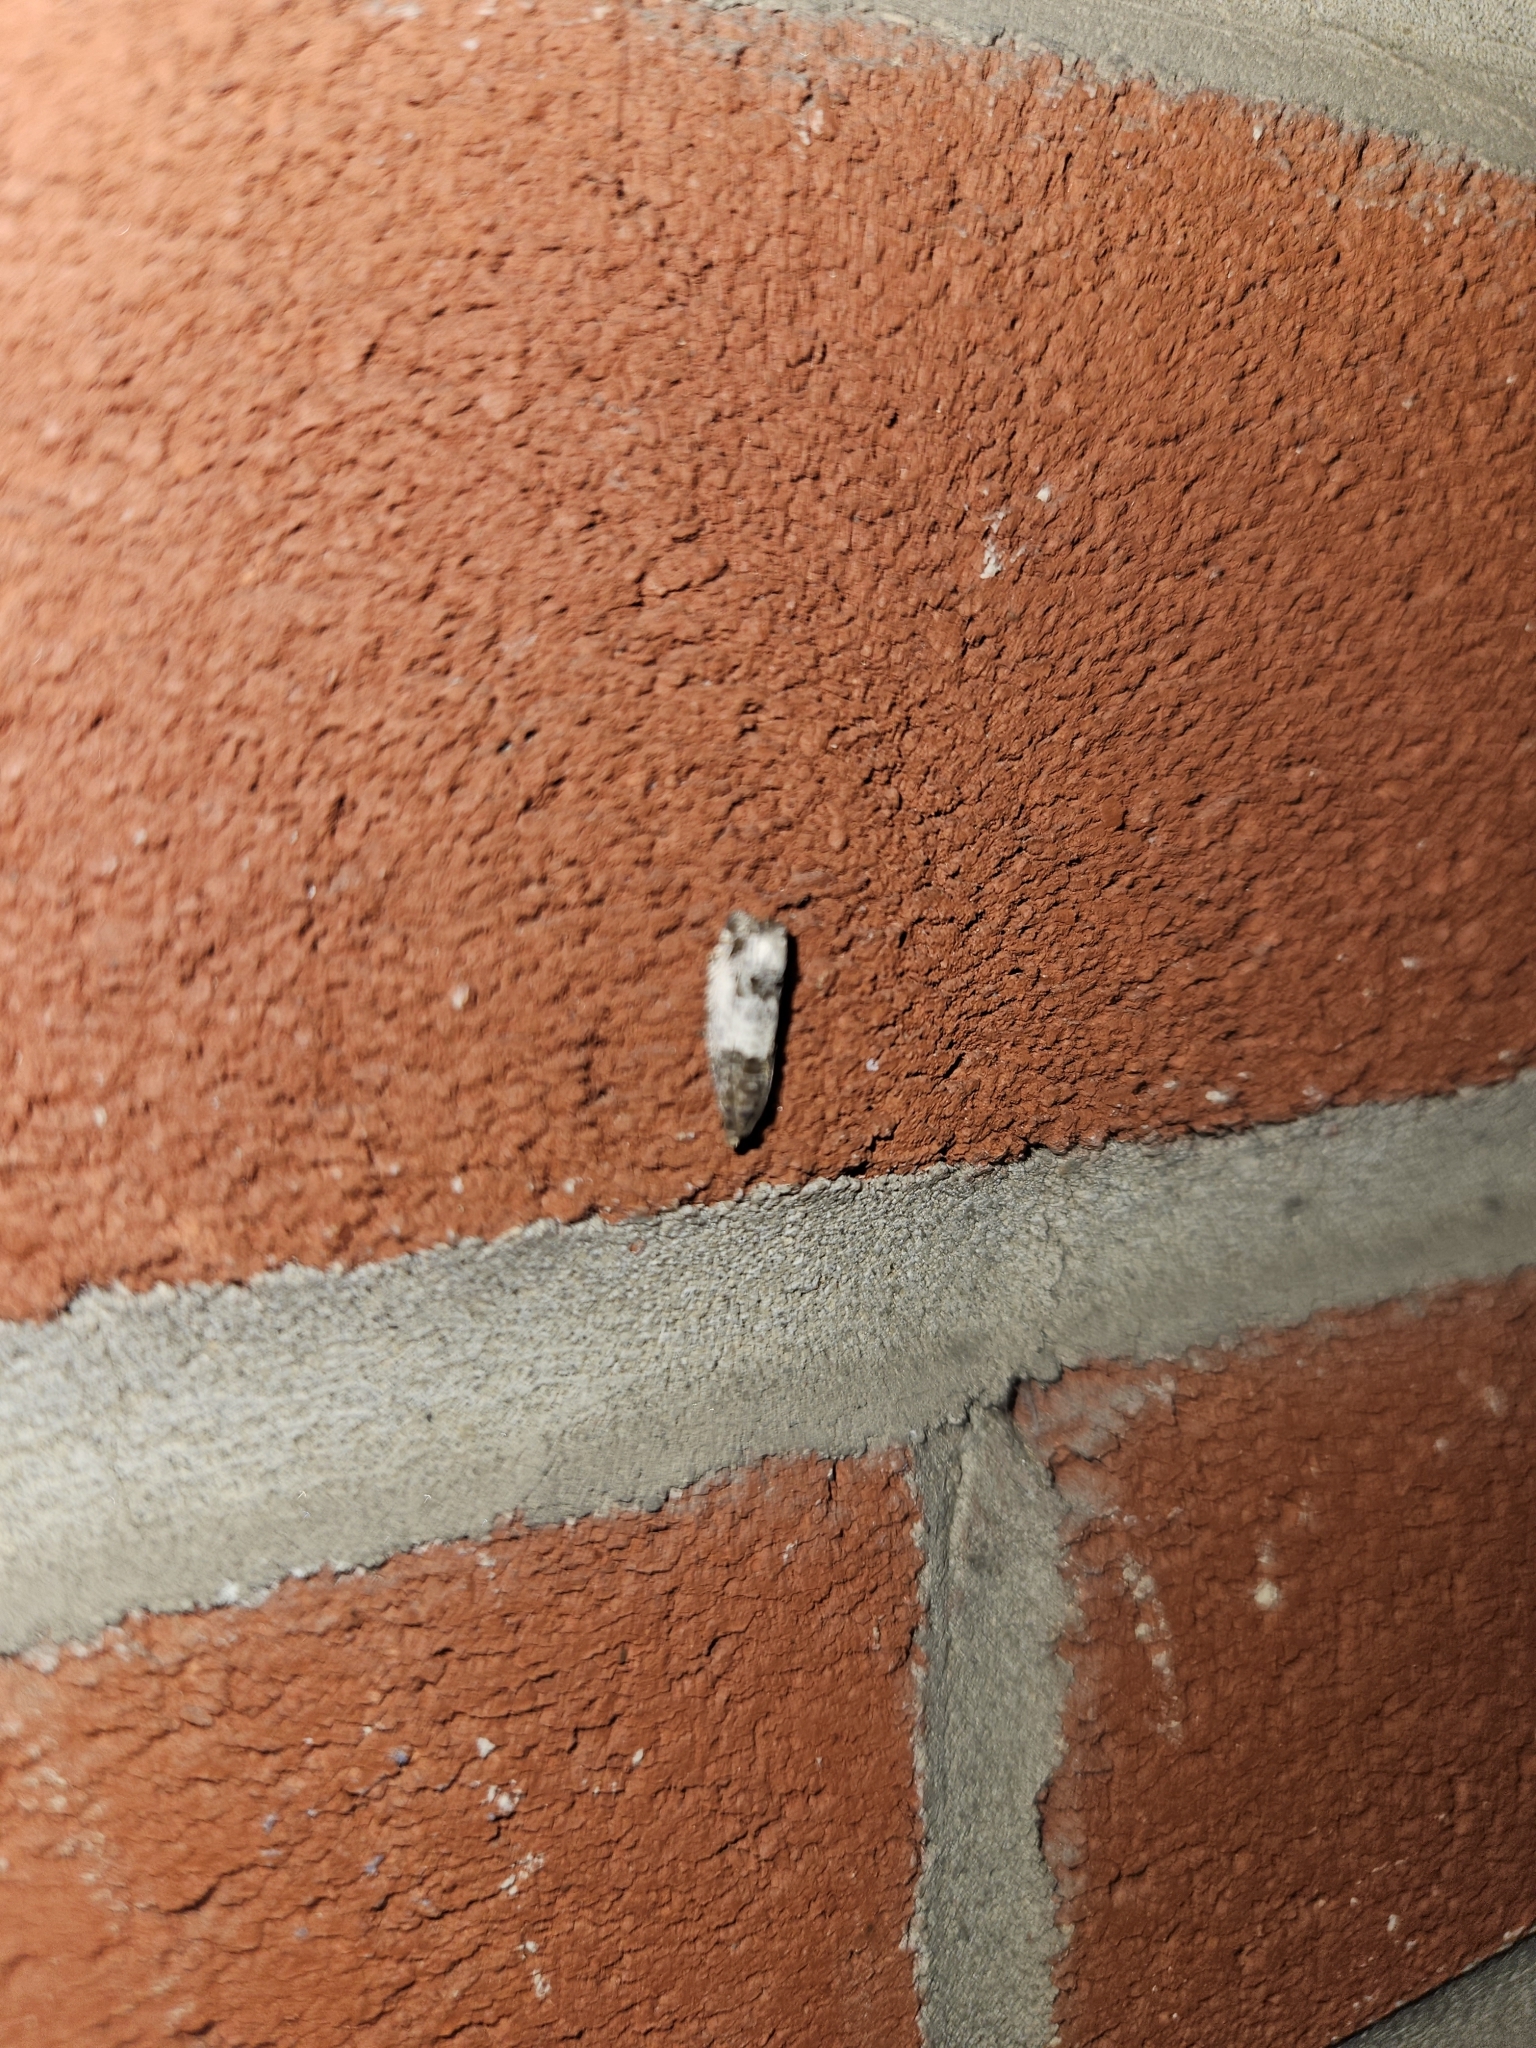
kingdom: Animalia
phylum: Arthropoda
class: Insecta
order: Lepidoptera
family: Tortricidae
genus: Notocelia
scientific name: Notocelia rosaecolana
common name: Common rose bell
